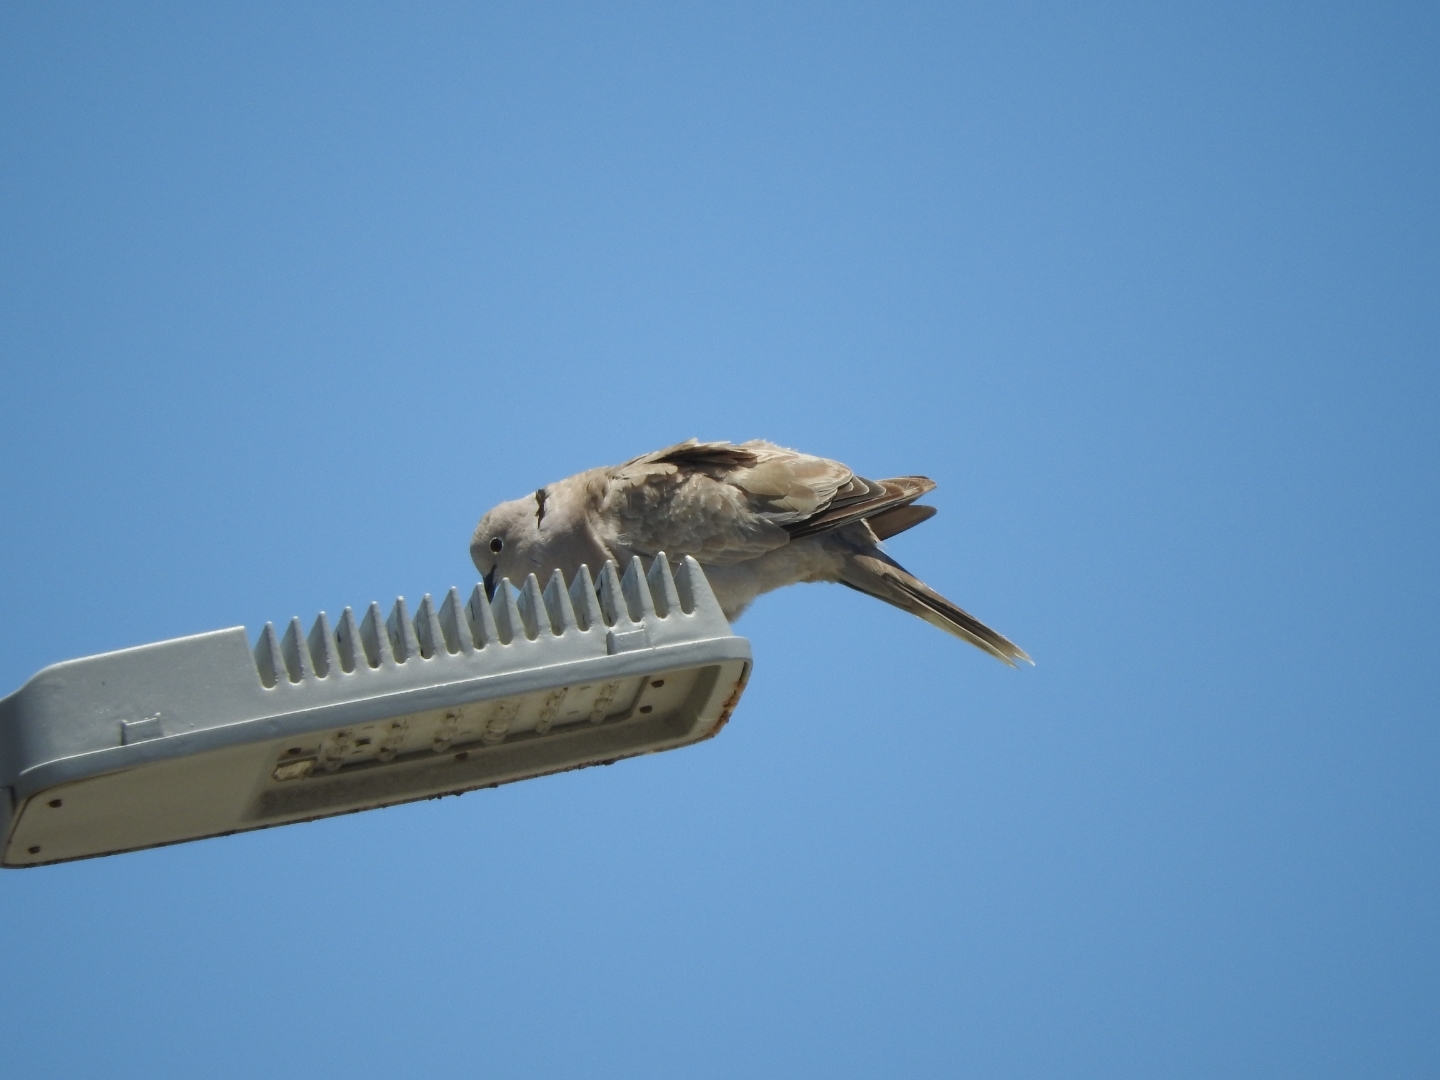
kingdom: Animalia
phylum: Chordata
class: Aves
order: Columbiformes
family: Columbidae
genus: Streptopelia
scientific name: Streptopelia decaocto
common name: Eurasian collared dove
